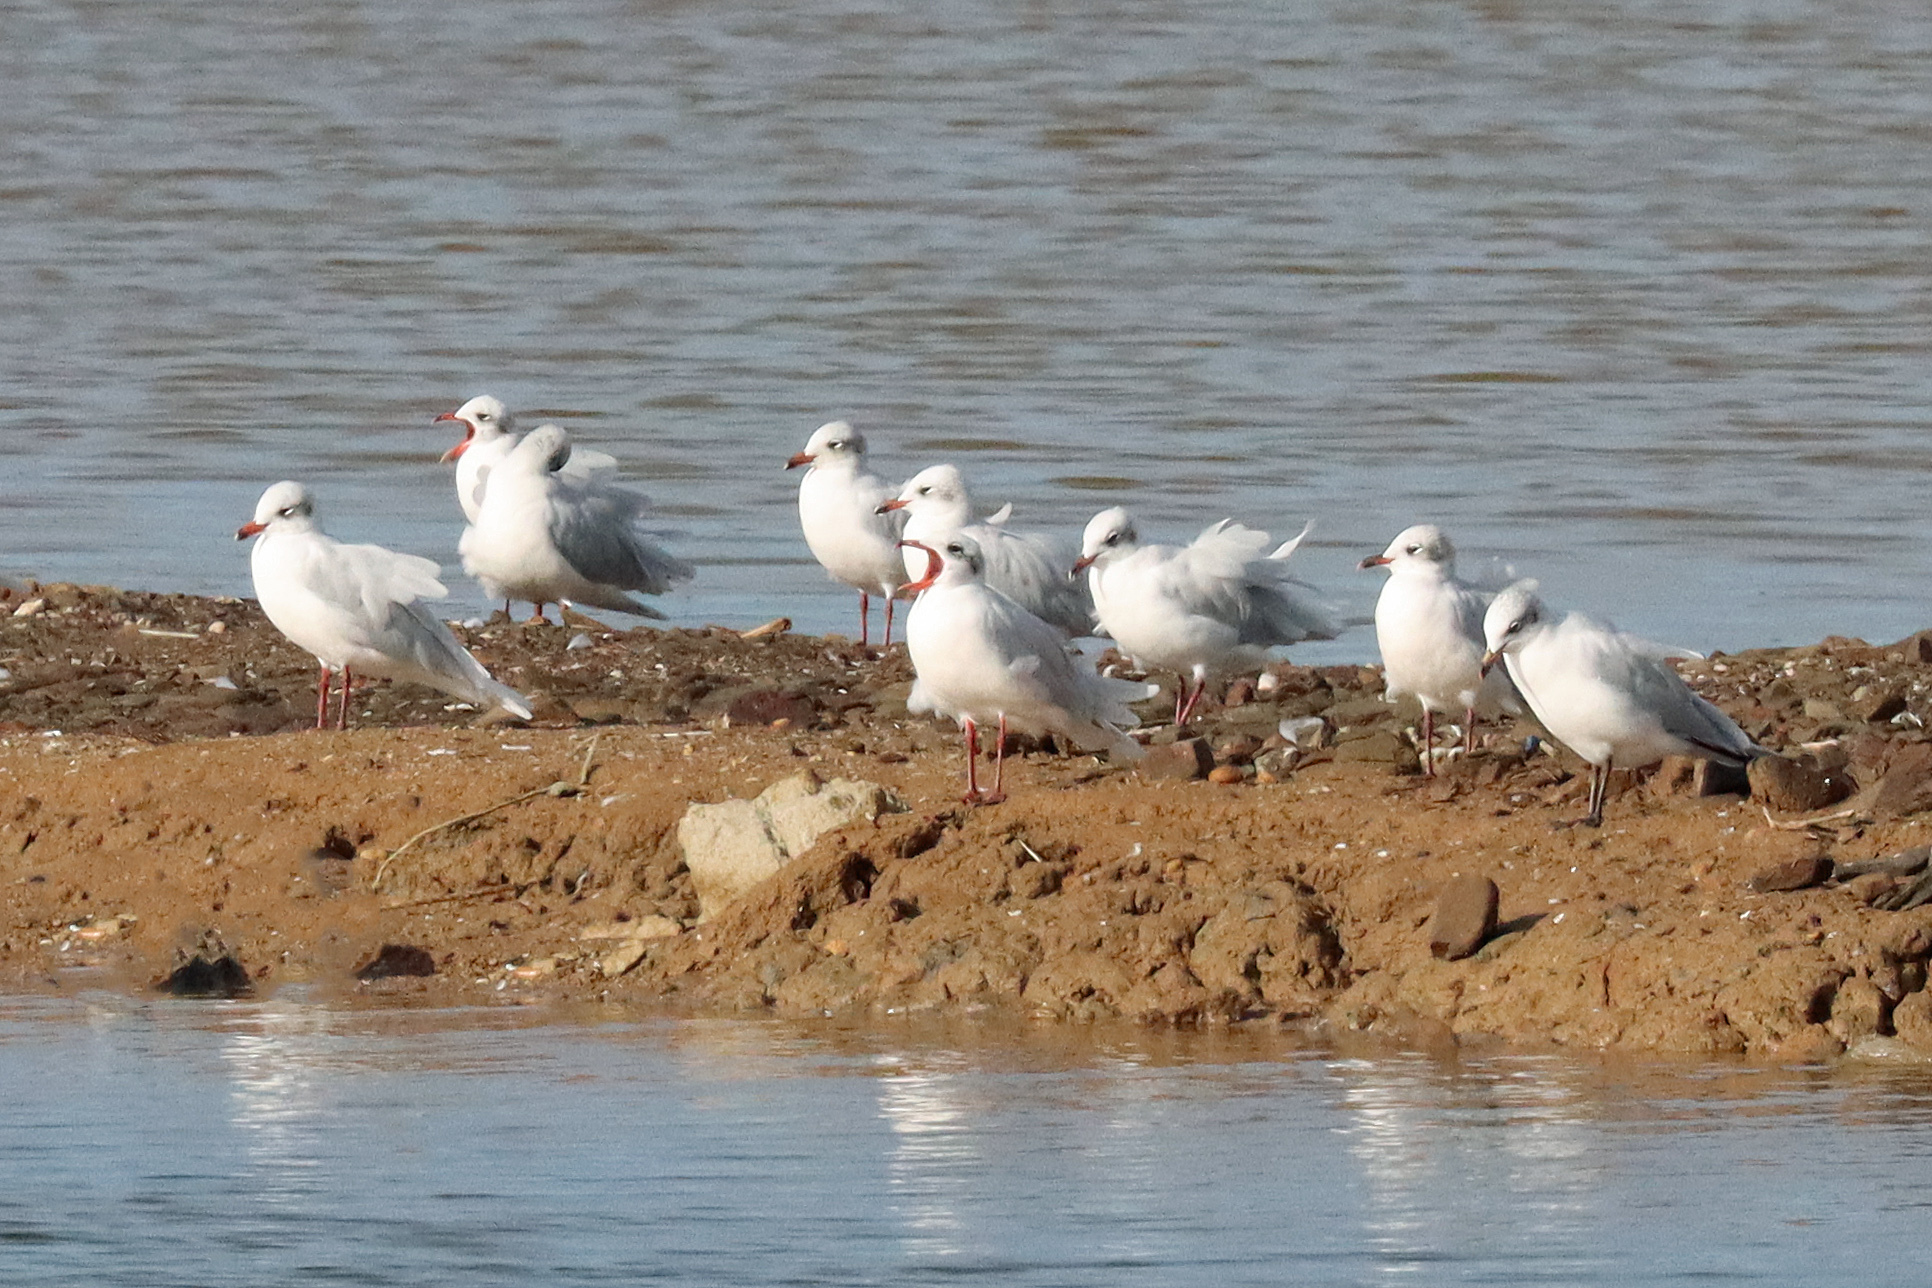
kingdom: Animalia
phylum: Chordata
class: Aves
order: Charadriiformes
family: Laridae
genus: Ichthyaetus
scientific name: Ichthyaetus melanocephalus
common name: Mediterranean gull
